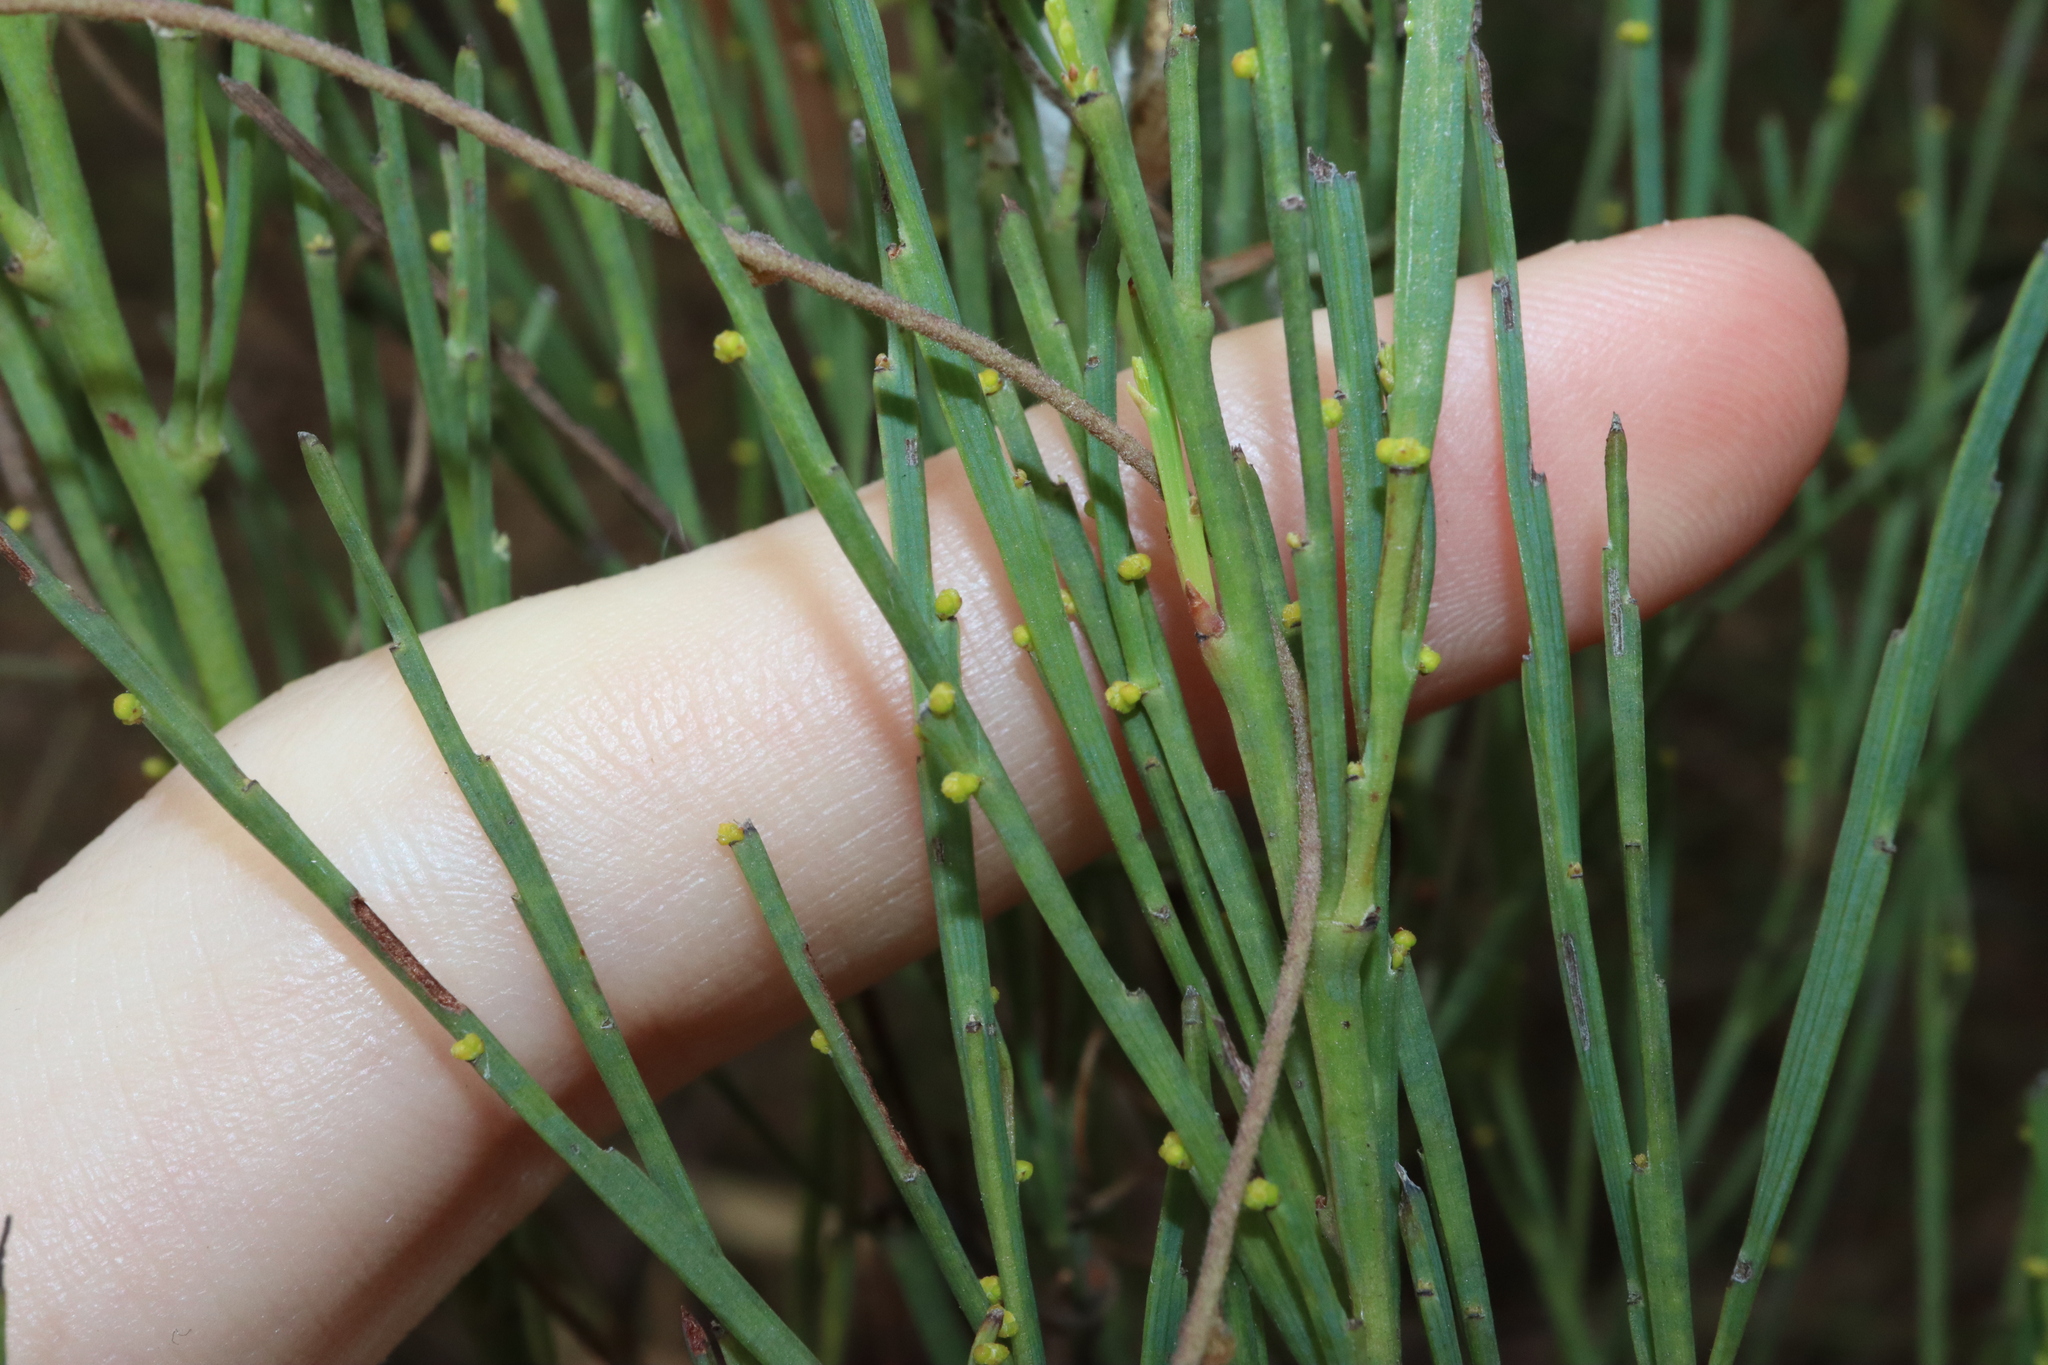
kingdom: Plantae
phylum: Tracheophyta
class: Magnoliopsida
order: Santalales
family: Santalaceae
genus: Exocarpos
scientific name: Exocarpos strictus
